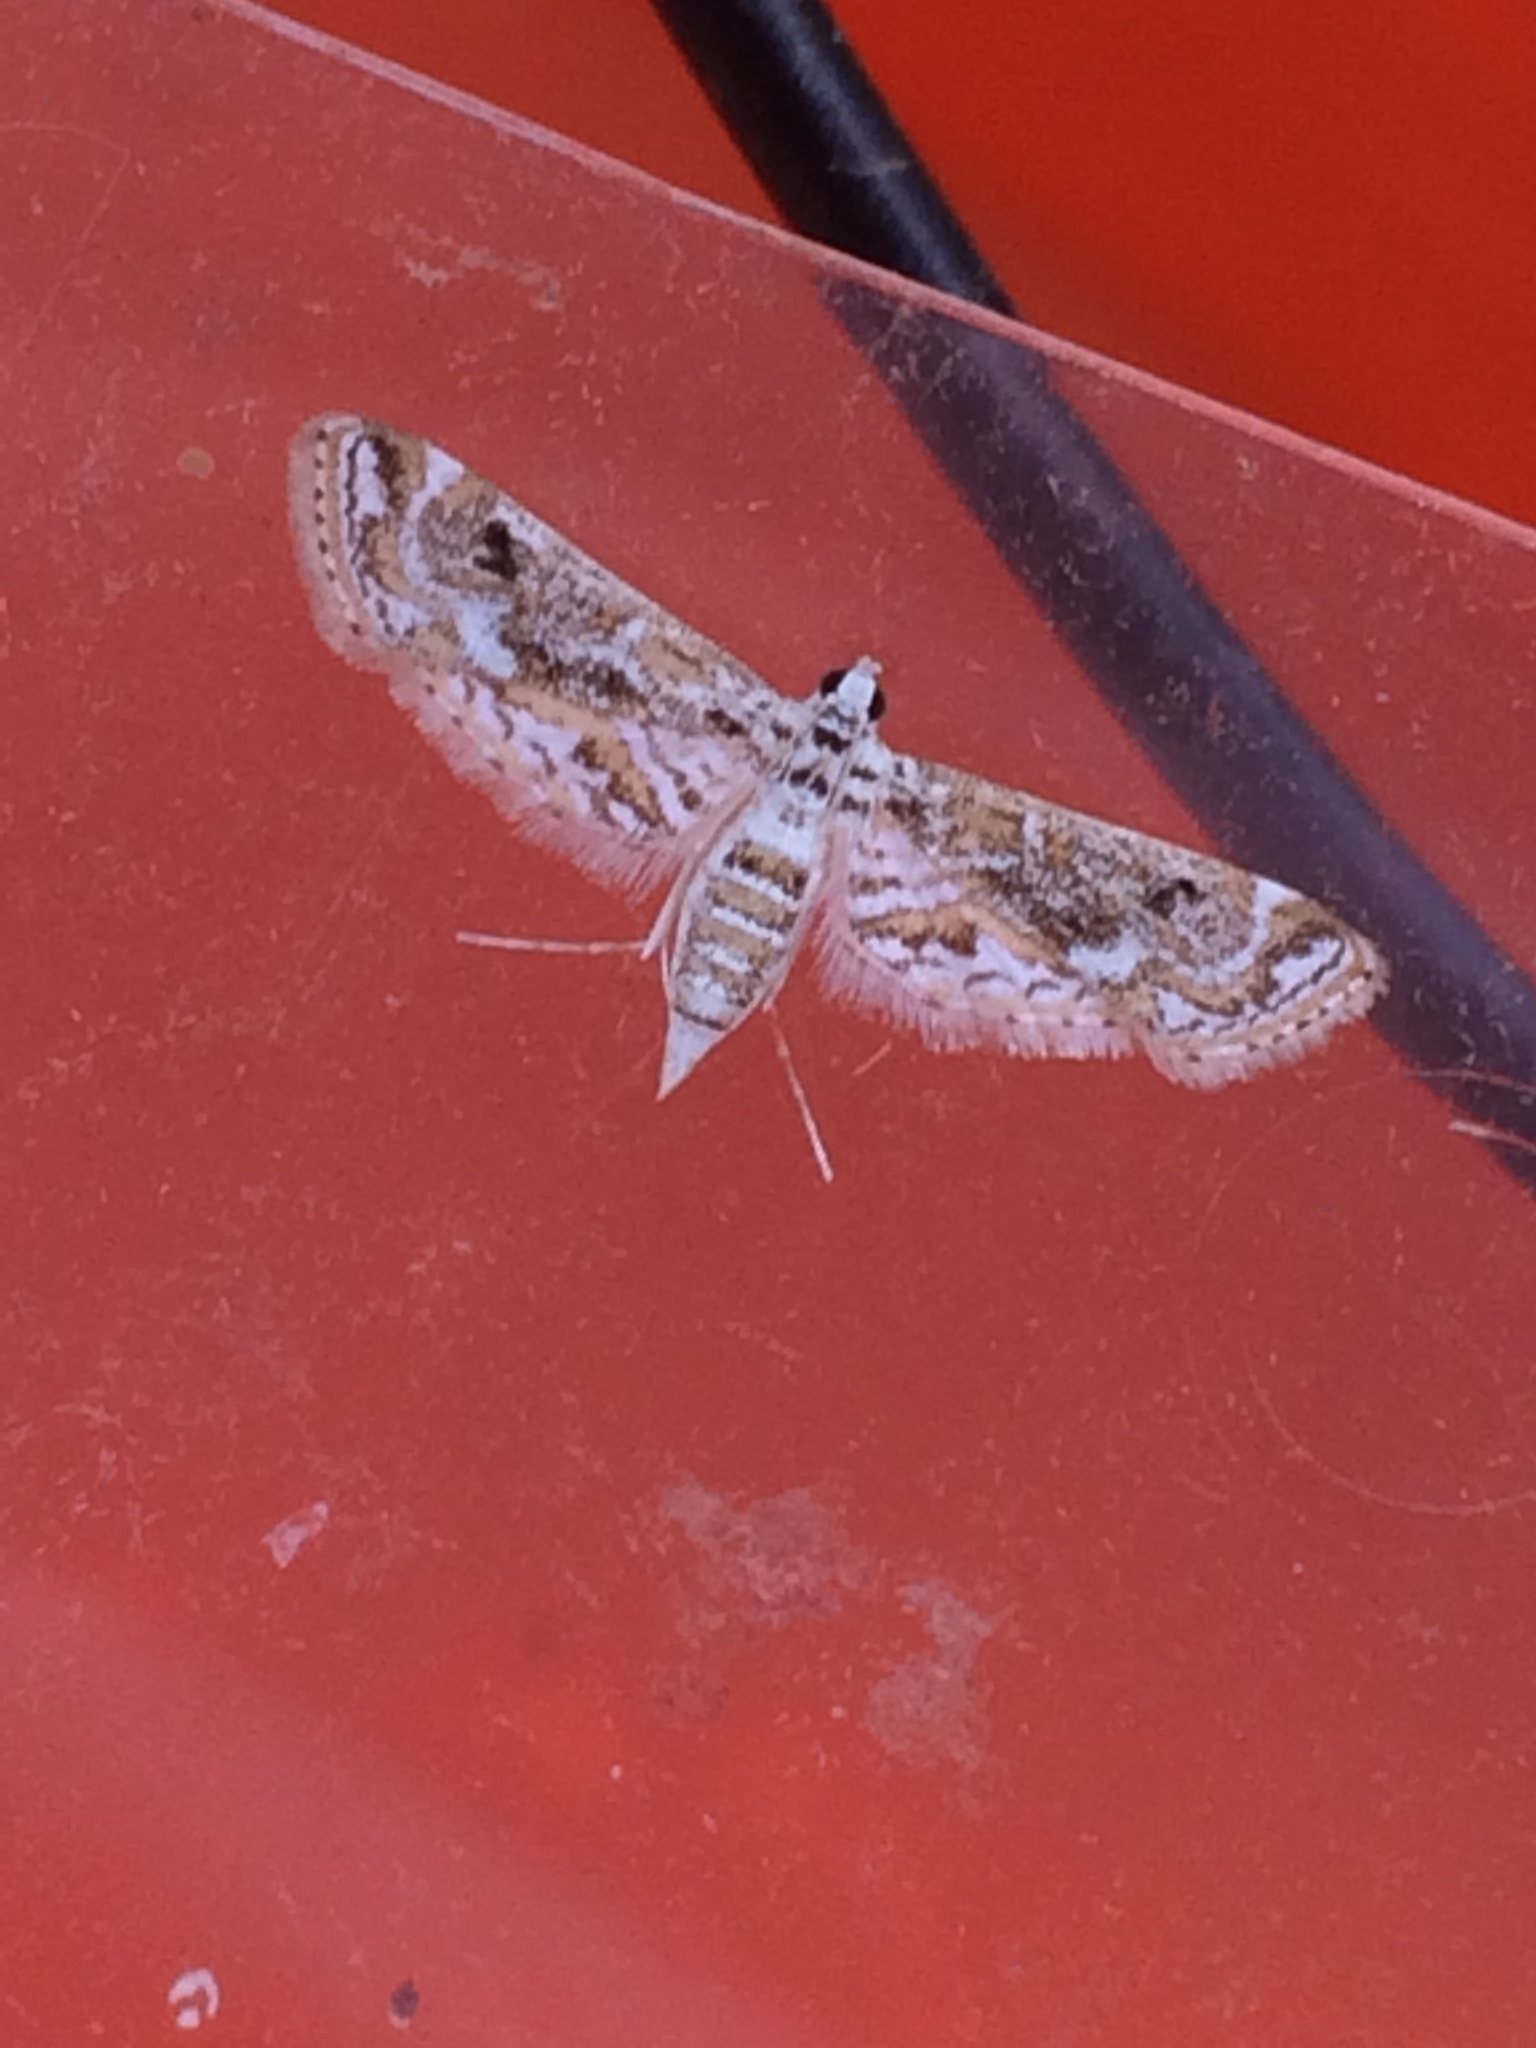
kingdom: Animalia
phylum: Arthropoda
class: Insecta
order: Lepidoptera
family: Crambidae
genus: Parapoynx
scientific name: Parapoynx diminutalis
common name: Hydrilla leafcutter
